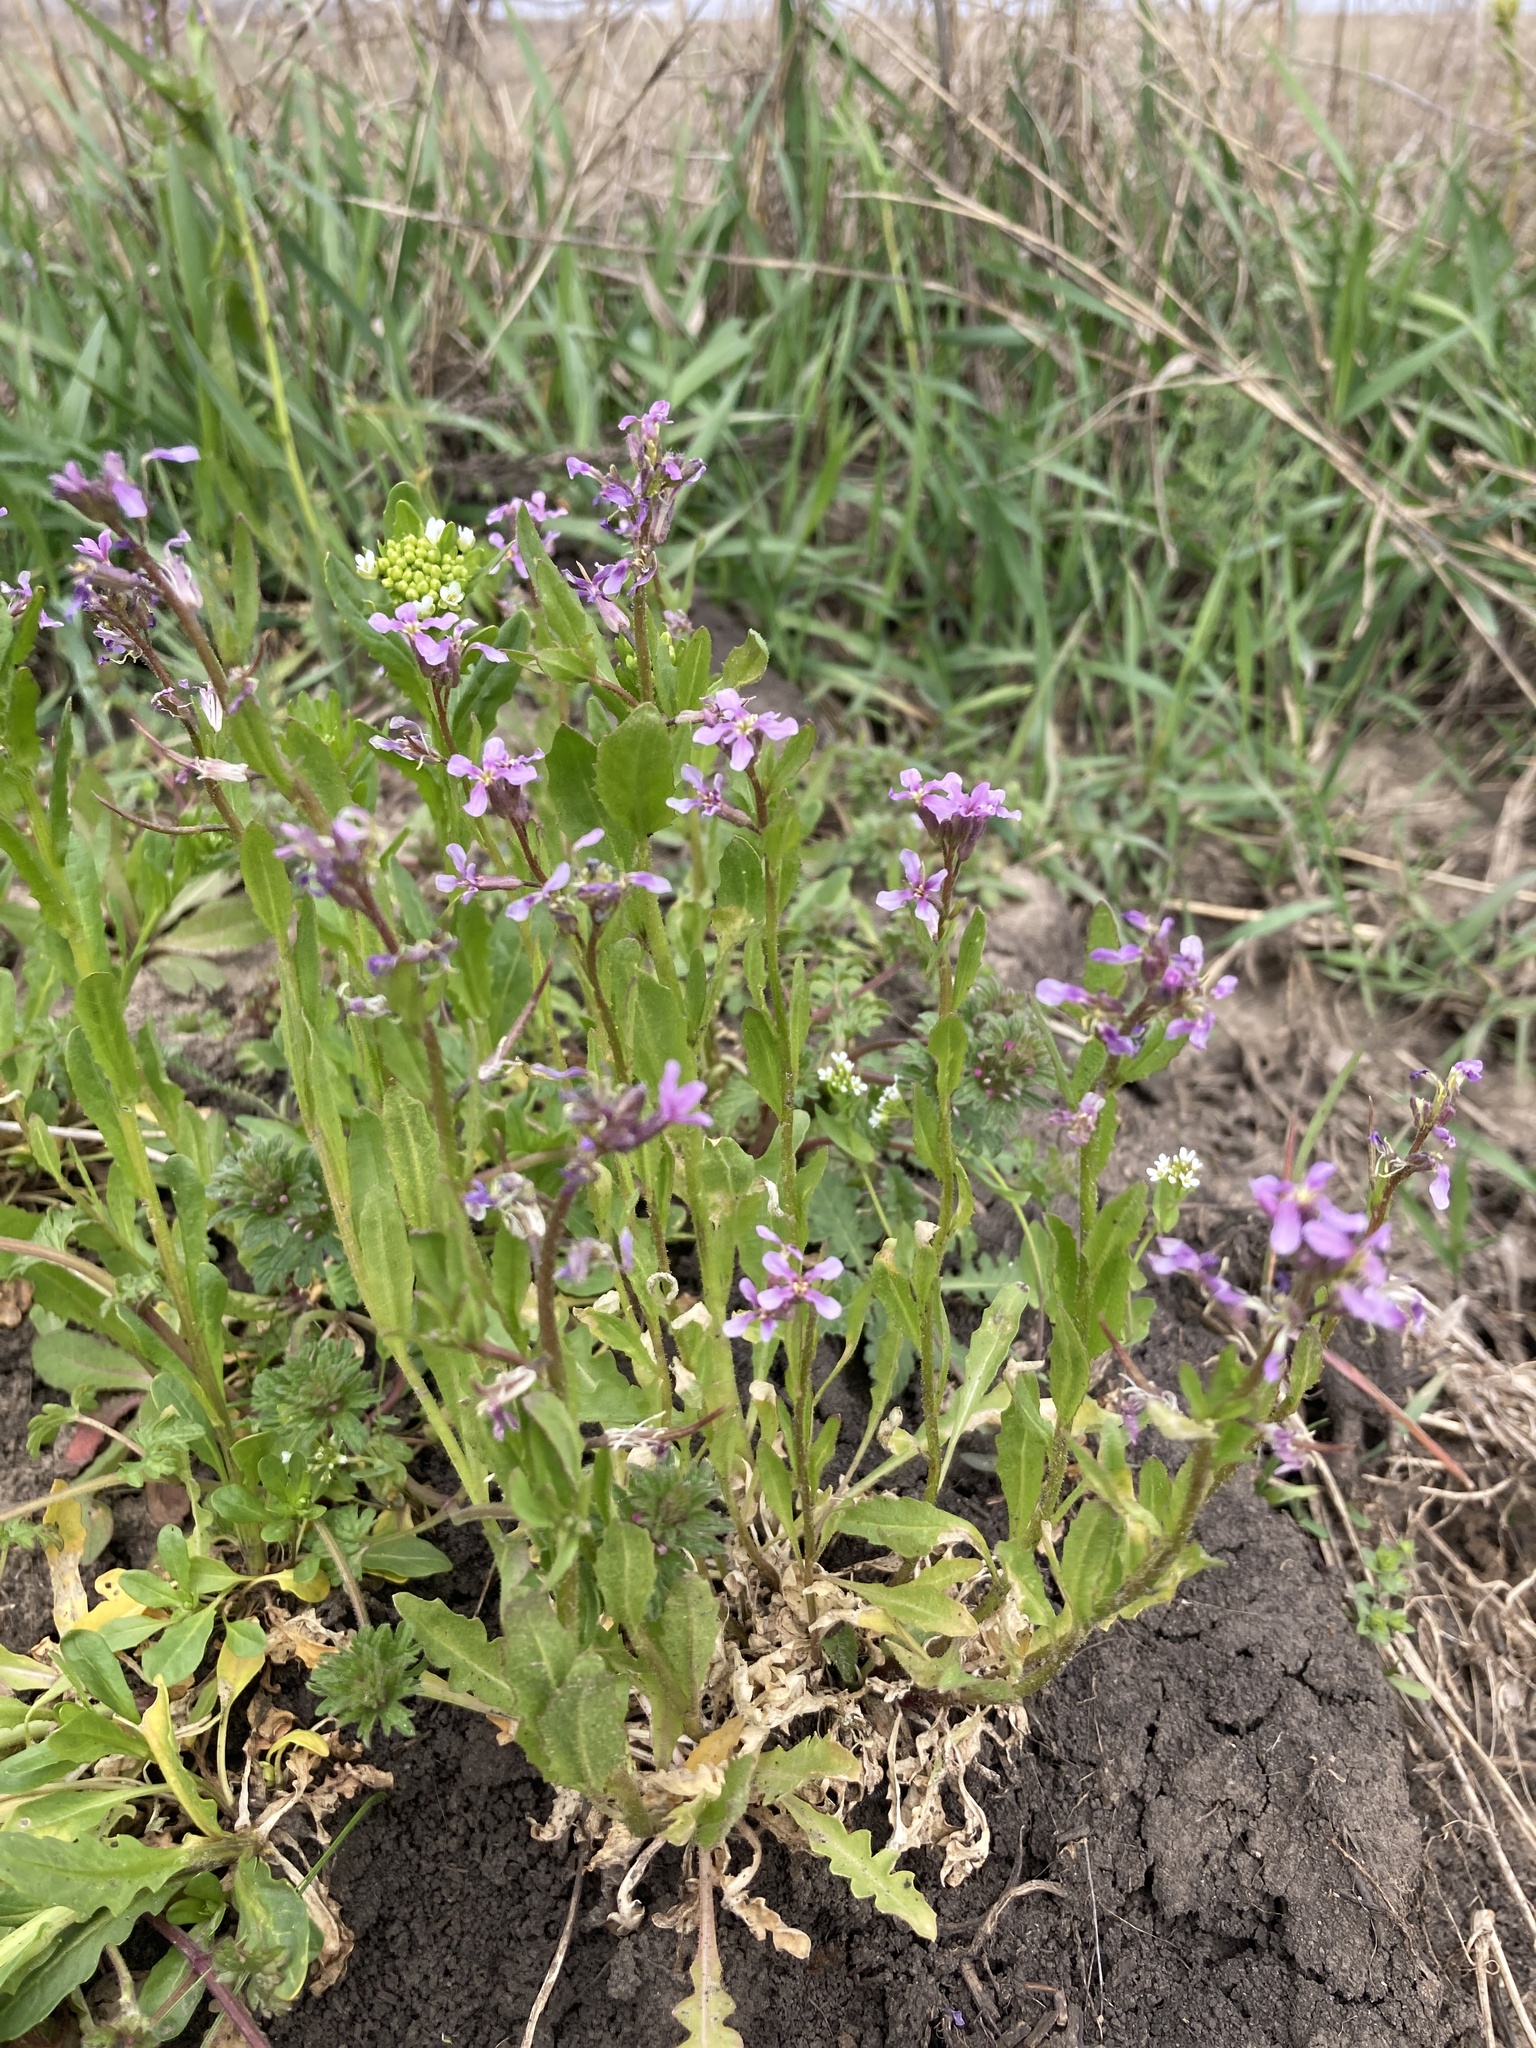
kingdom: Plantae
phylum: Tracheophyta
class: Magnoliopsida
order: Brassicales
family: Brassicaceae
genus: Chorispora
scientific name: Chorispora tenella
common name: Crossflower
